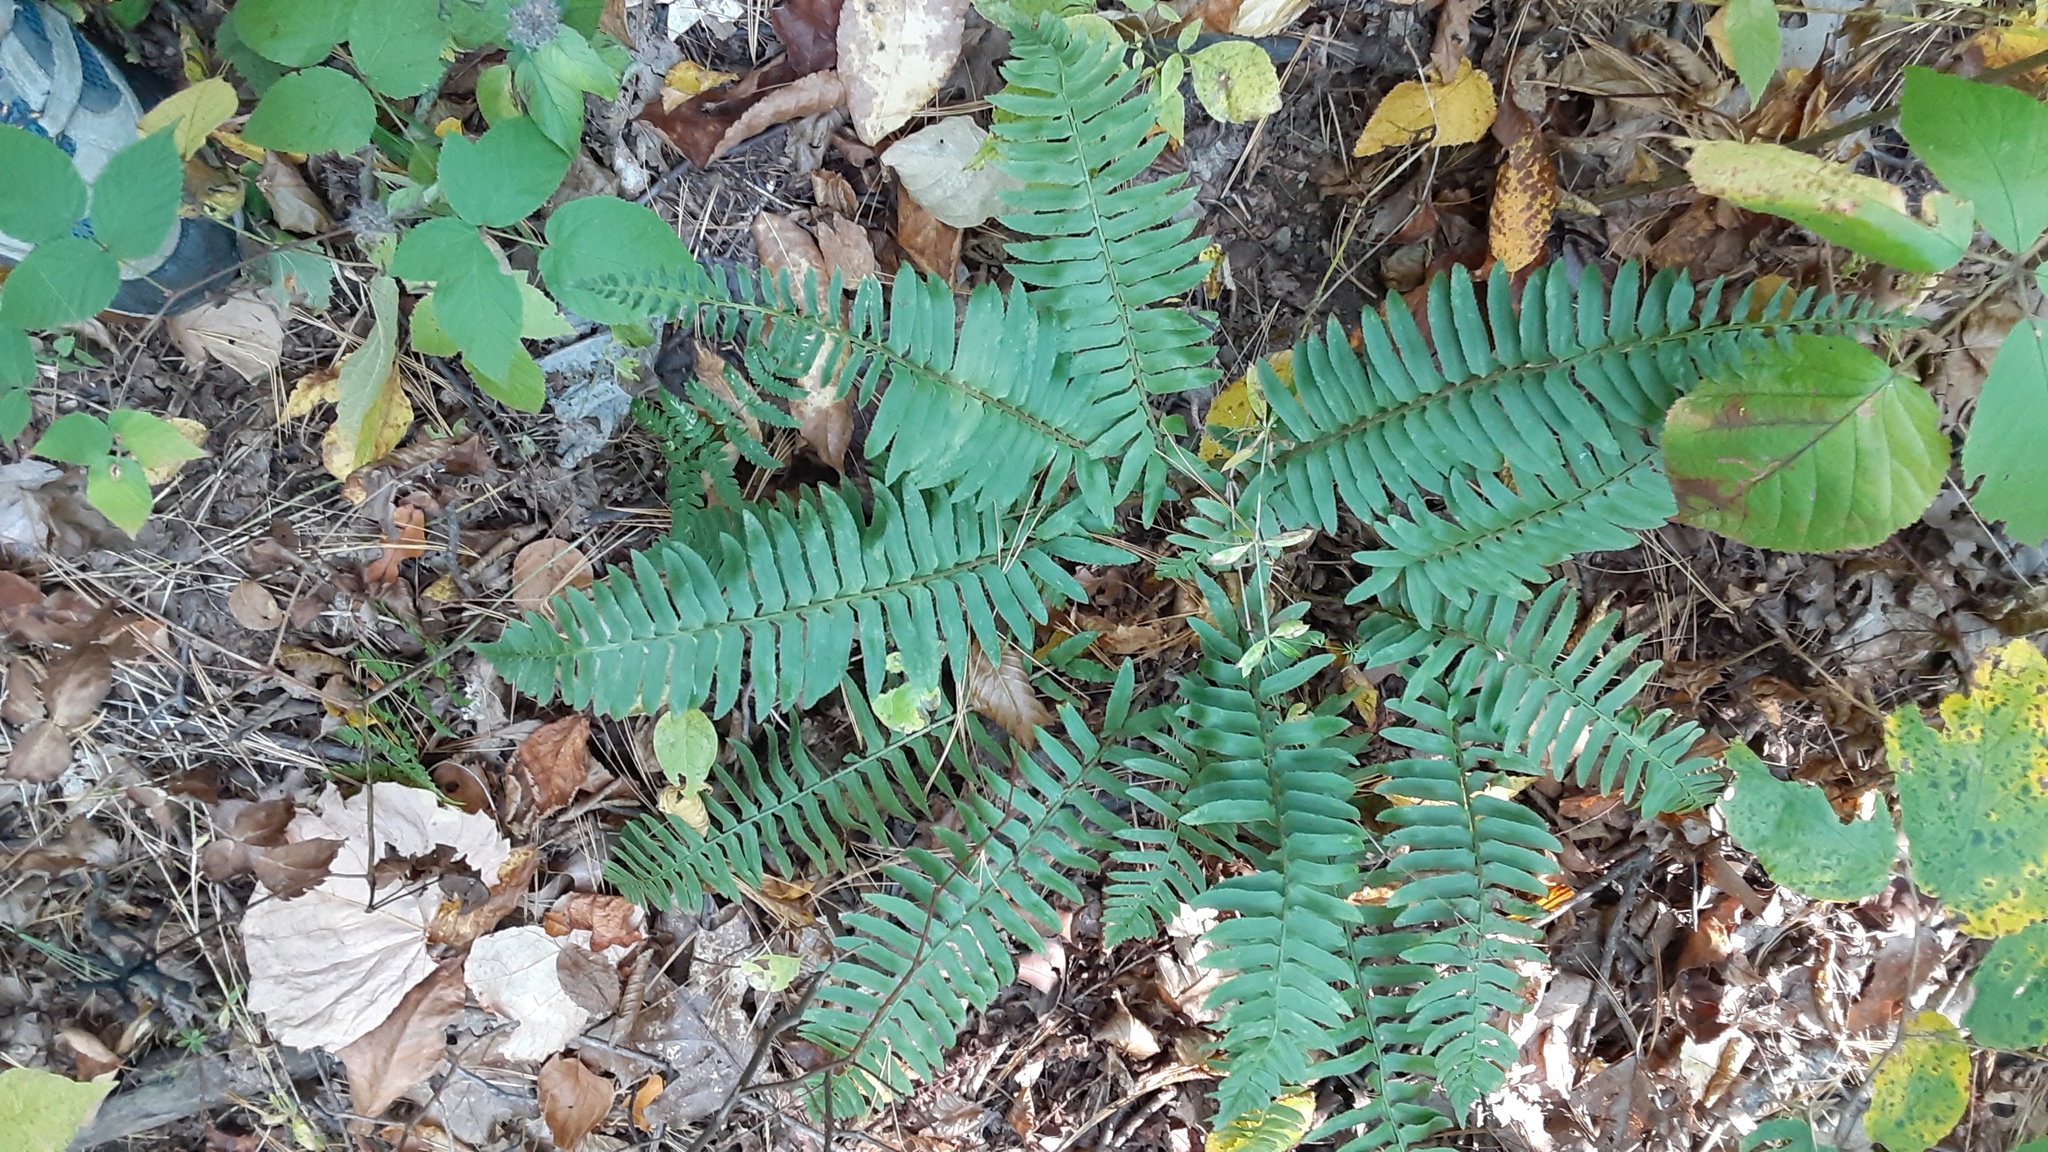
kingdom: Plantae
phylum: Tracheophyta
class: Polypodiopsida
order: Polypodiales
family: Dryopteridaceae
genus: Polystichum
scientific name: Polystichum acrostichoides
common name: Christmas fern
